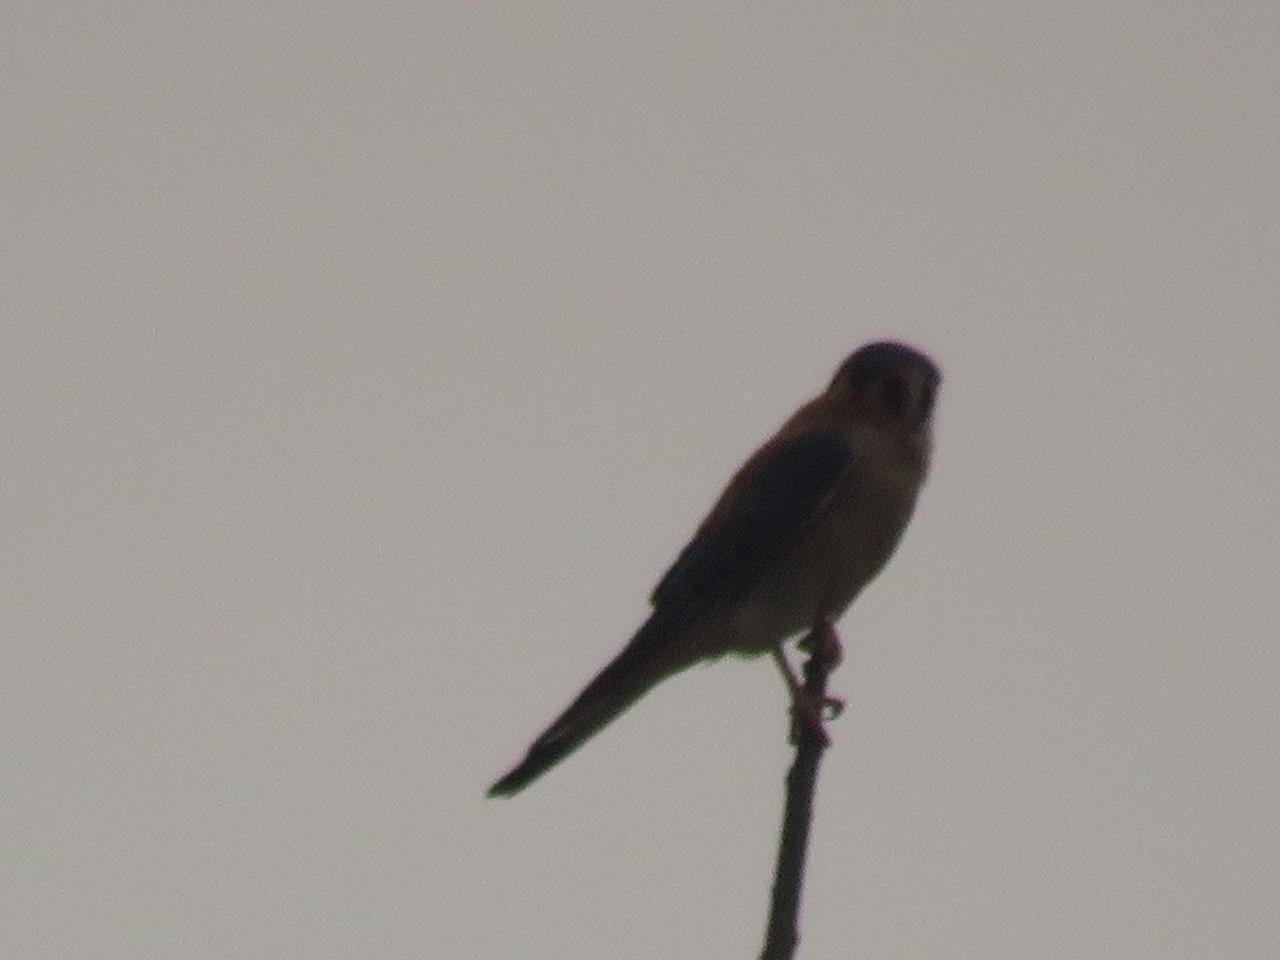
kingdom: Animalia
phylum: Chordata
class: Aves
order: Falconiformes
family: Falconidae
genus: Falco
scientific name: Falco sparverius
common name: American kestrel
